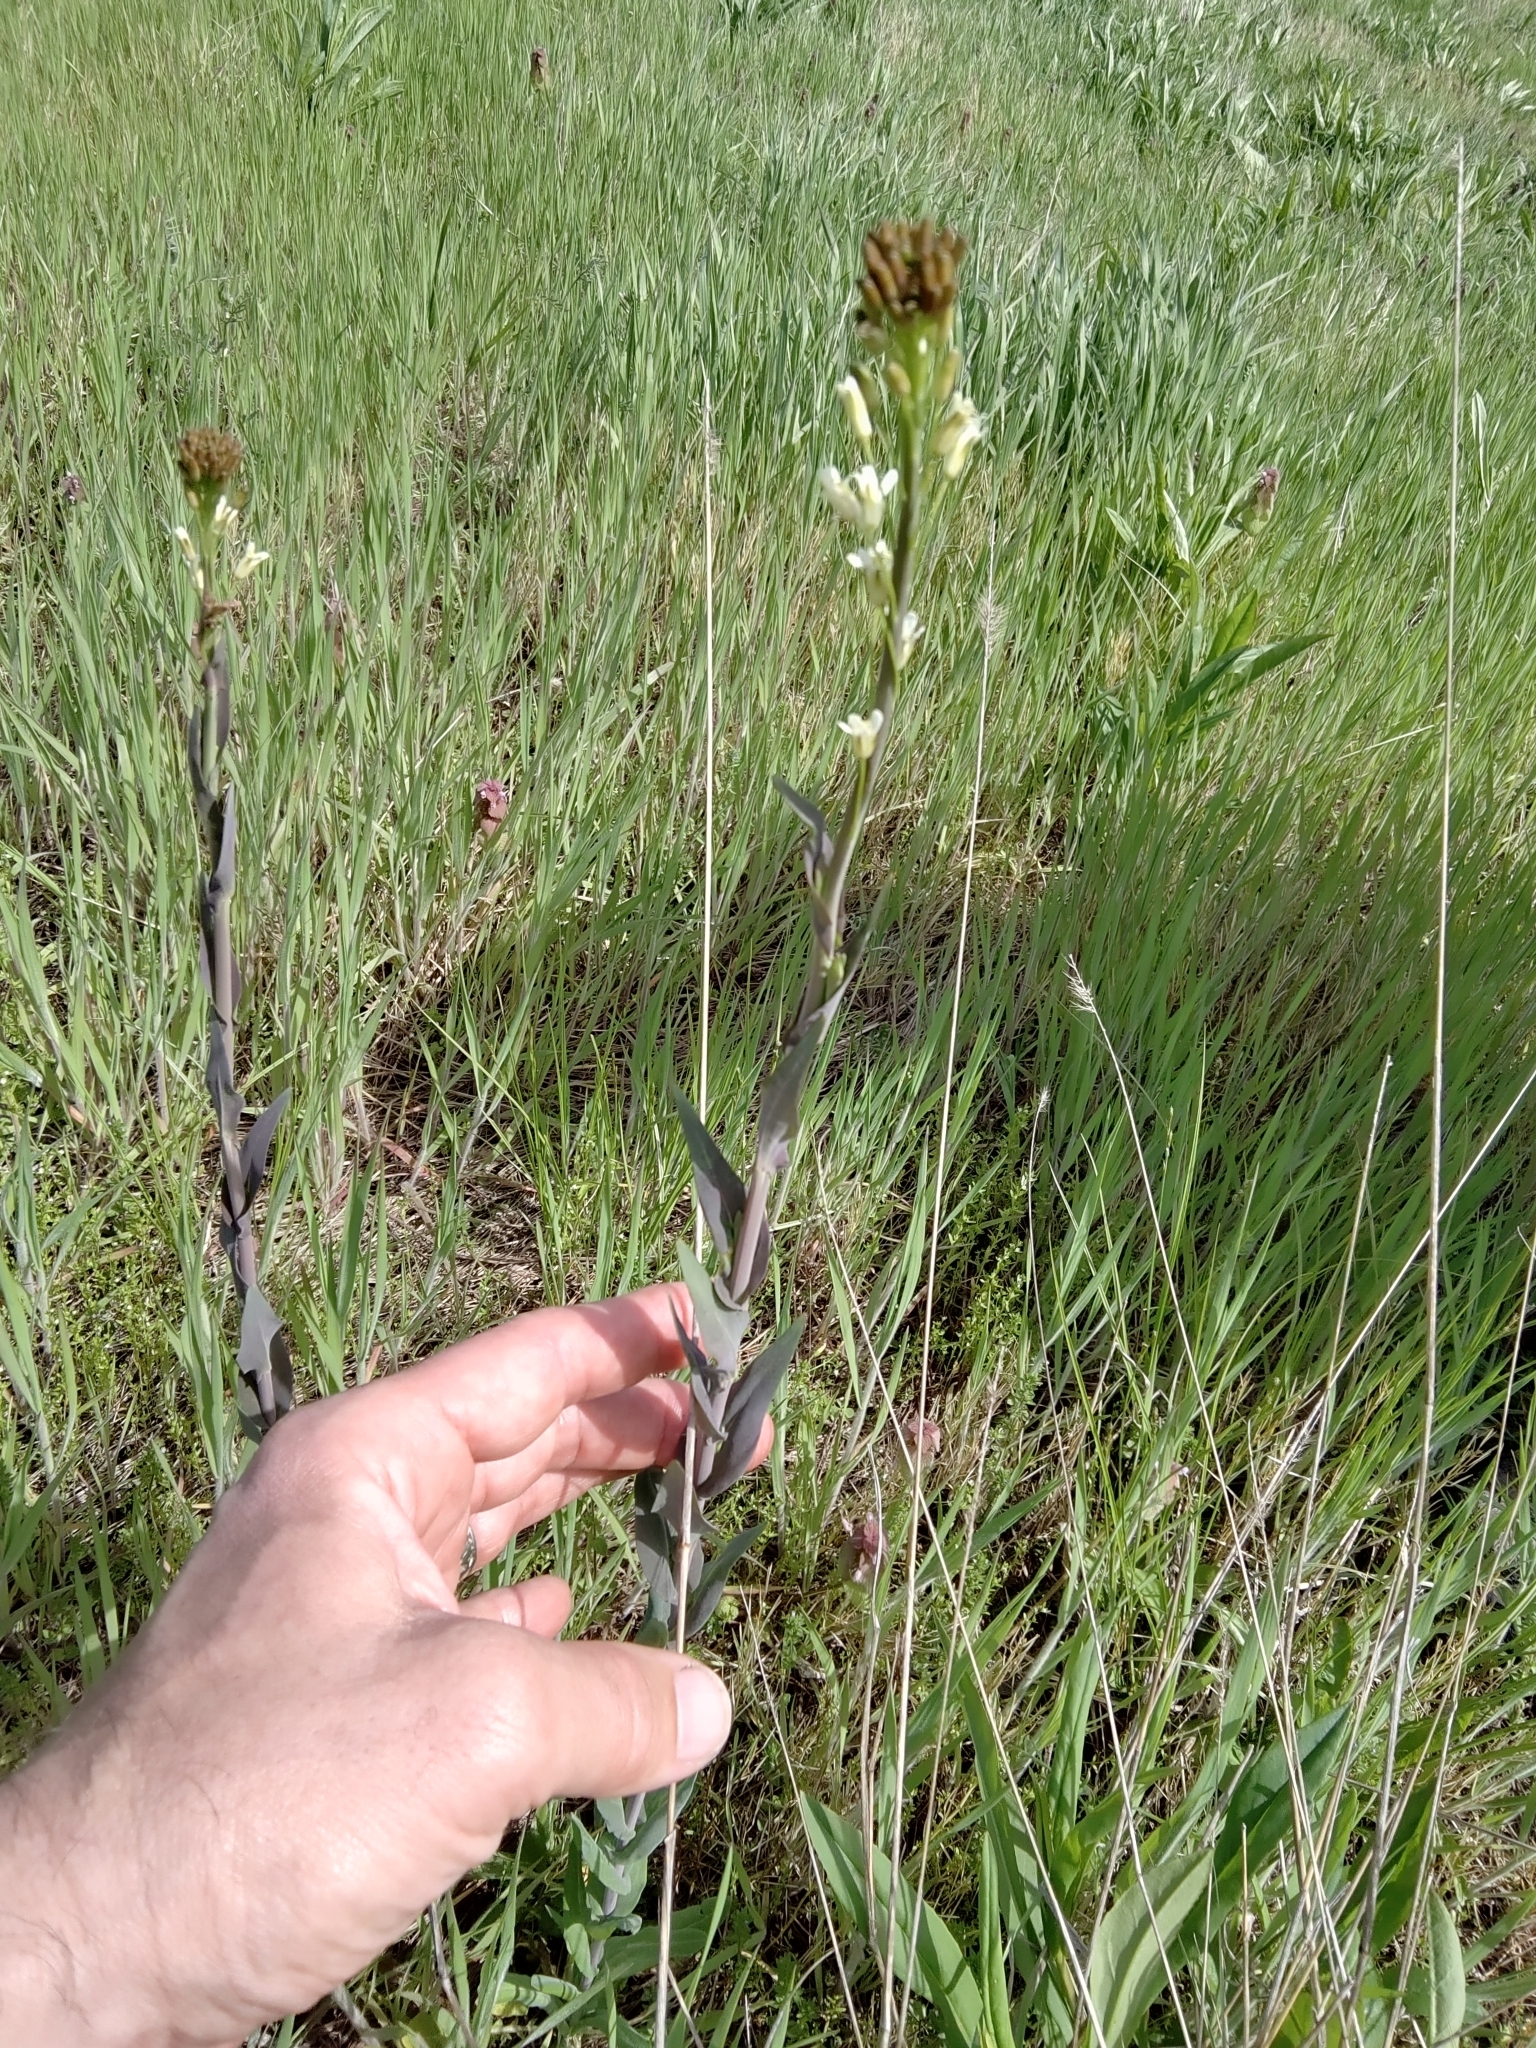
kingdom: Plantae
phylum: Tracheophyta
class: Magnoliopsida
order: Brassicales
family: Brassicaceae
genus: Turritis
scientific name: Turritis glabra
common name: Tower rockcress
